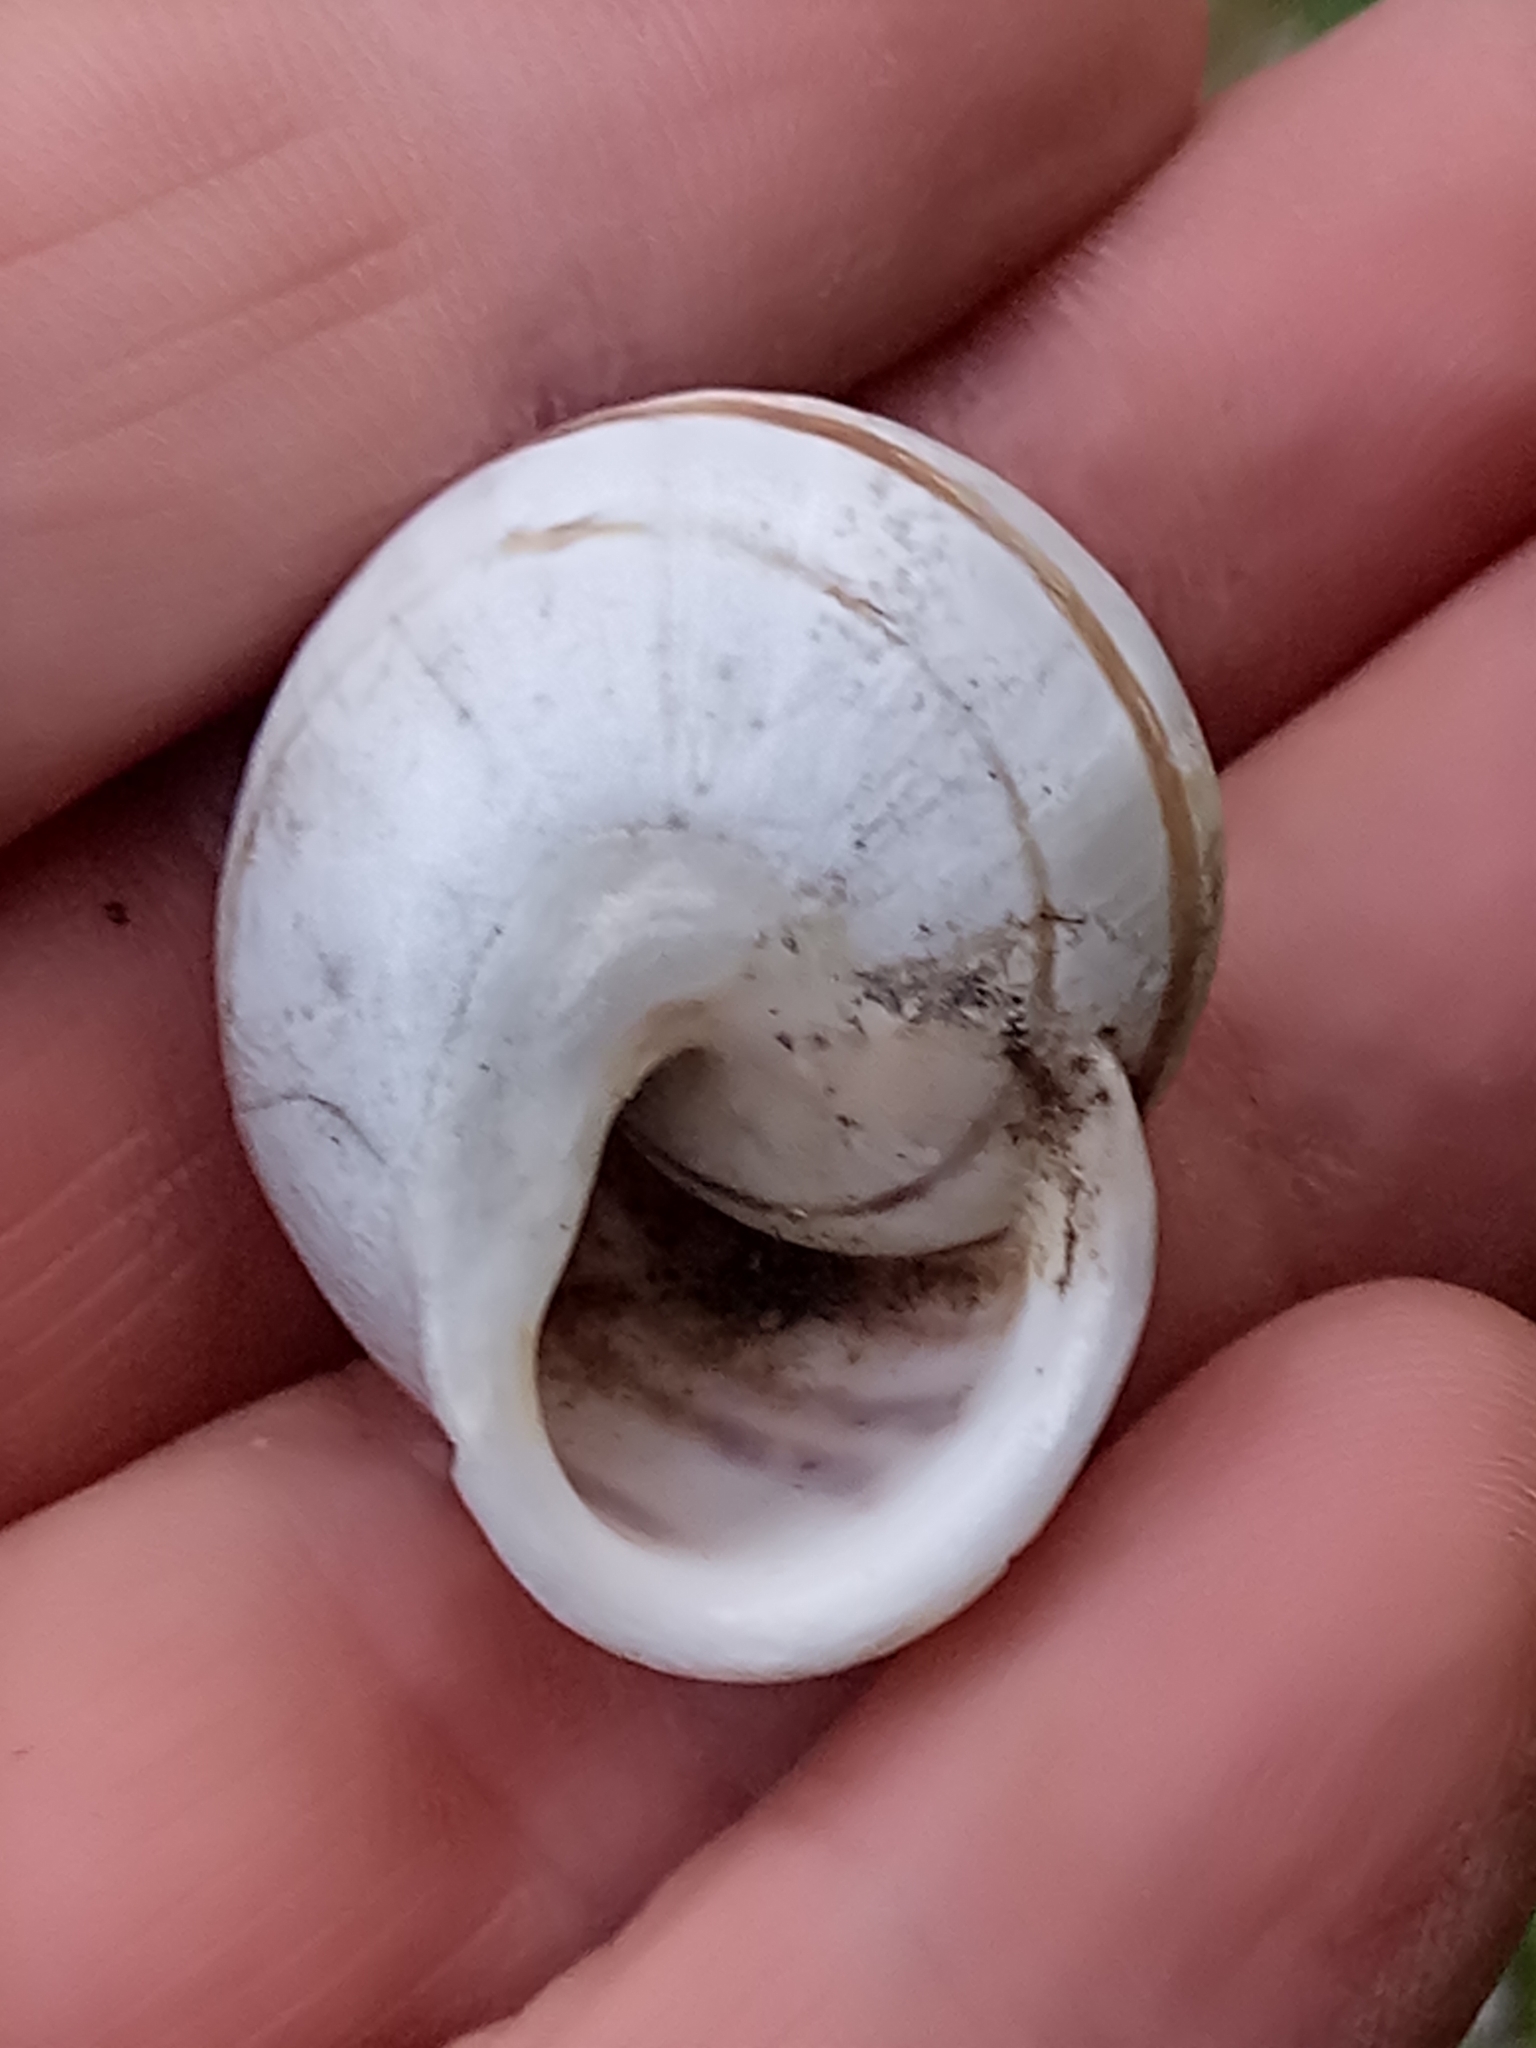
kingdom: Animalia
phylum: Mollusca
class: Gastropoda
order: Stylommatophora
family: Helicidae
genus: Eobania
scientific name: Eobania constantina
